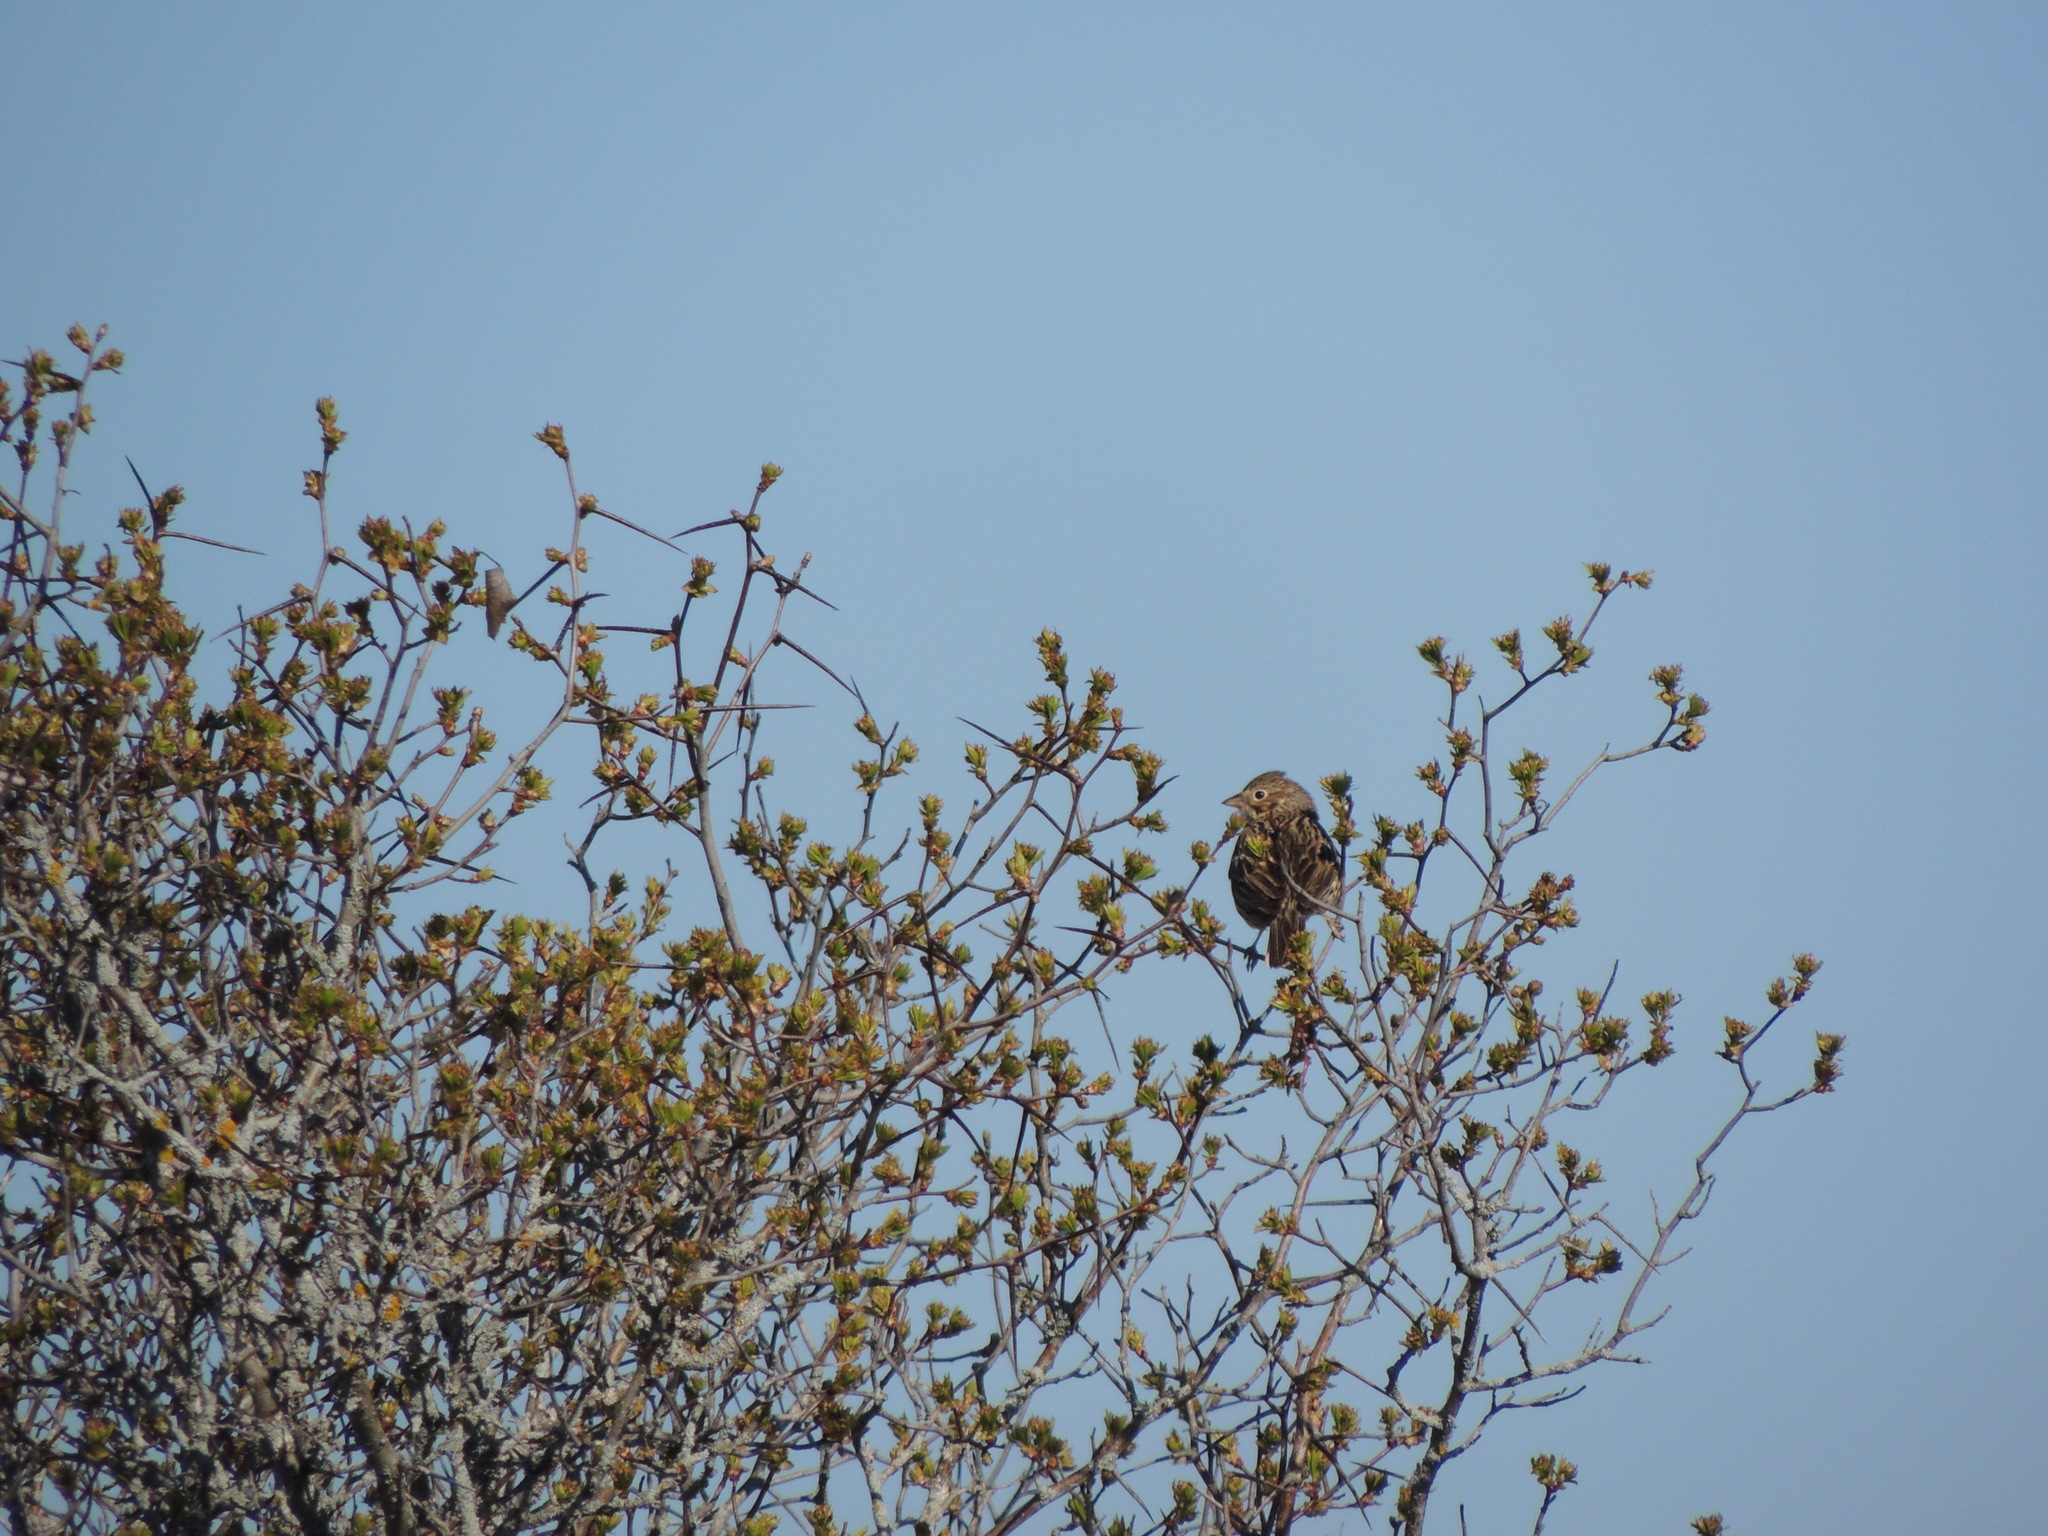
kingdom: Animalia
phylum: Chordata
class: Aves
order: Passeriformes
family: Passerellidae
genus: Pooecetes
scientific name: Pooecetes gramineus
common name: Vesper sparrow
